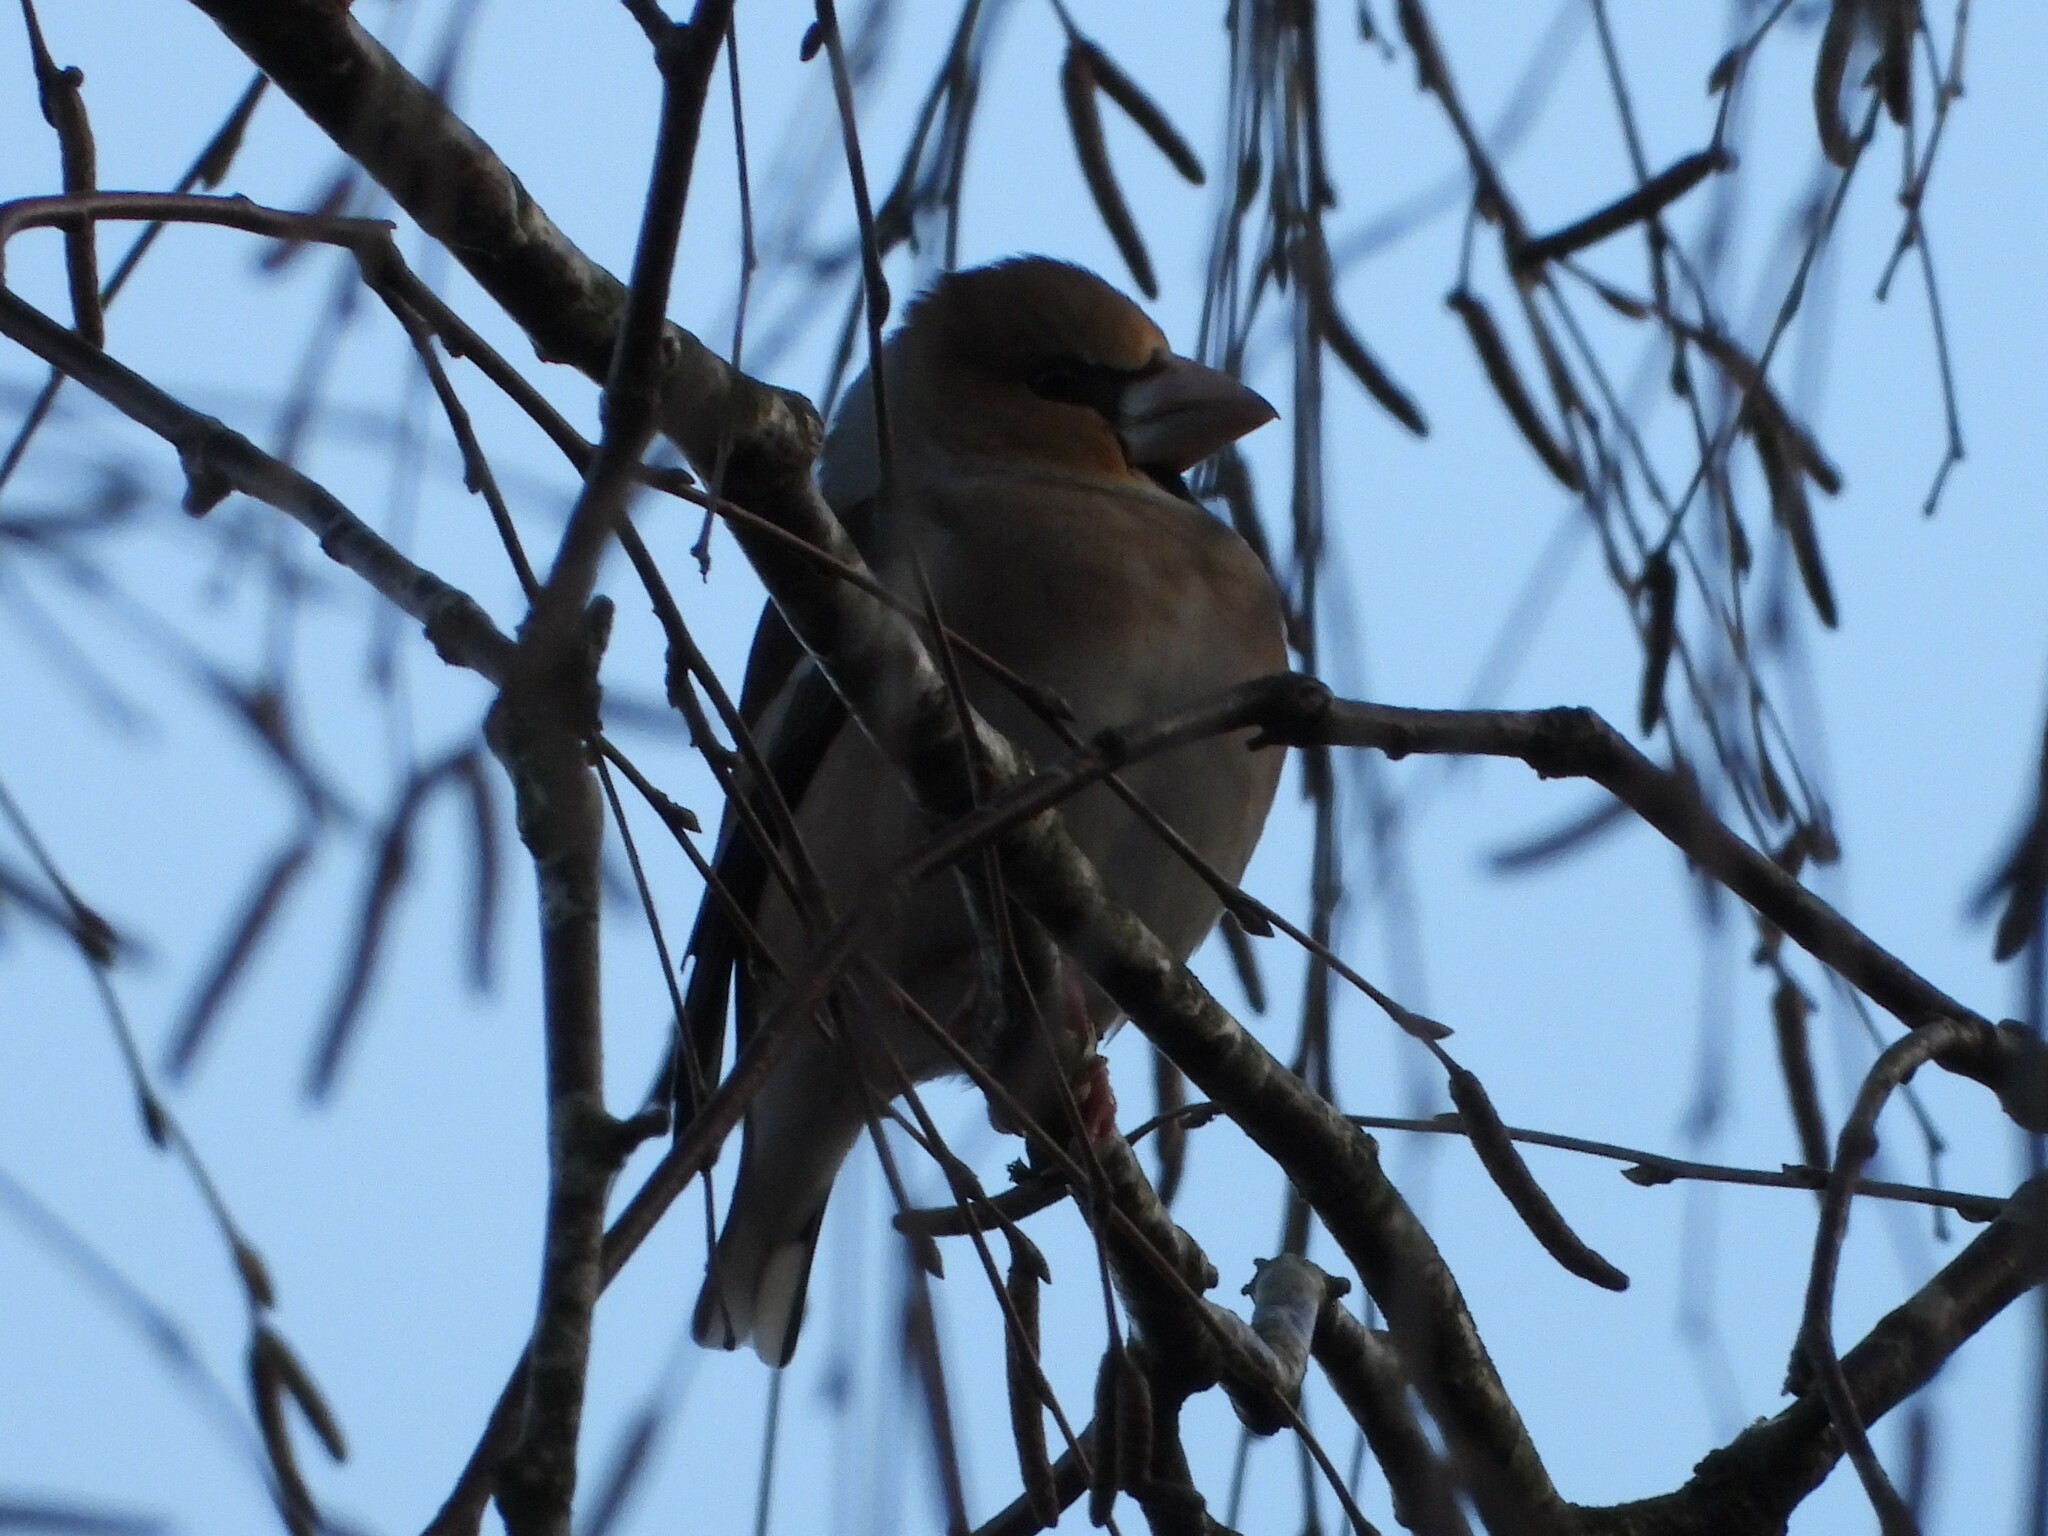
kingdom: Animalia
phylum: Chordata
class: Aves
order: Passeriformes
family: Fringillidae
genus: Coccothraustes
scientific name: Coccothraustes coccothraustes
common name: Hawfinch
